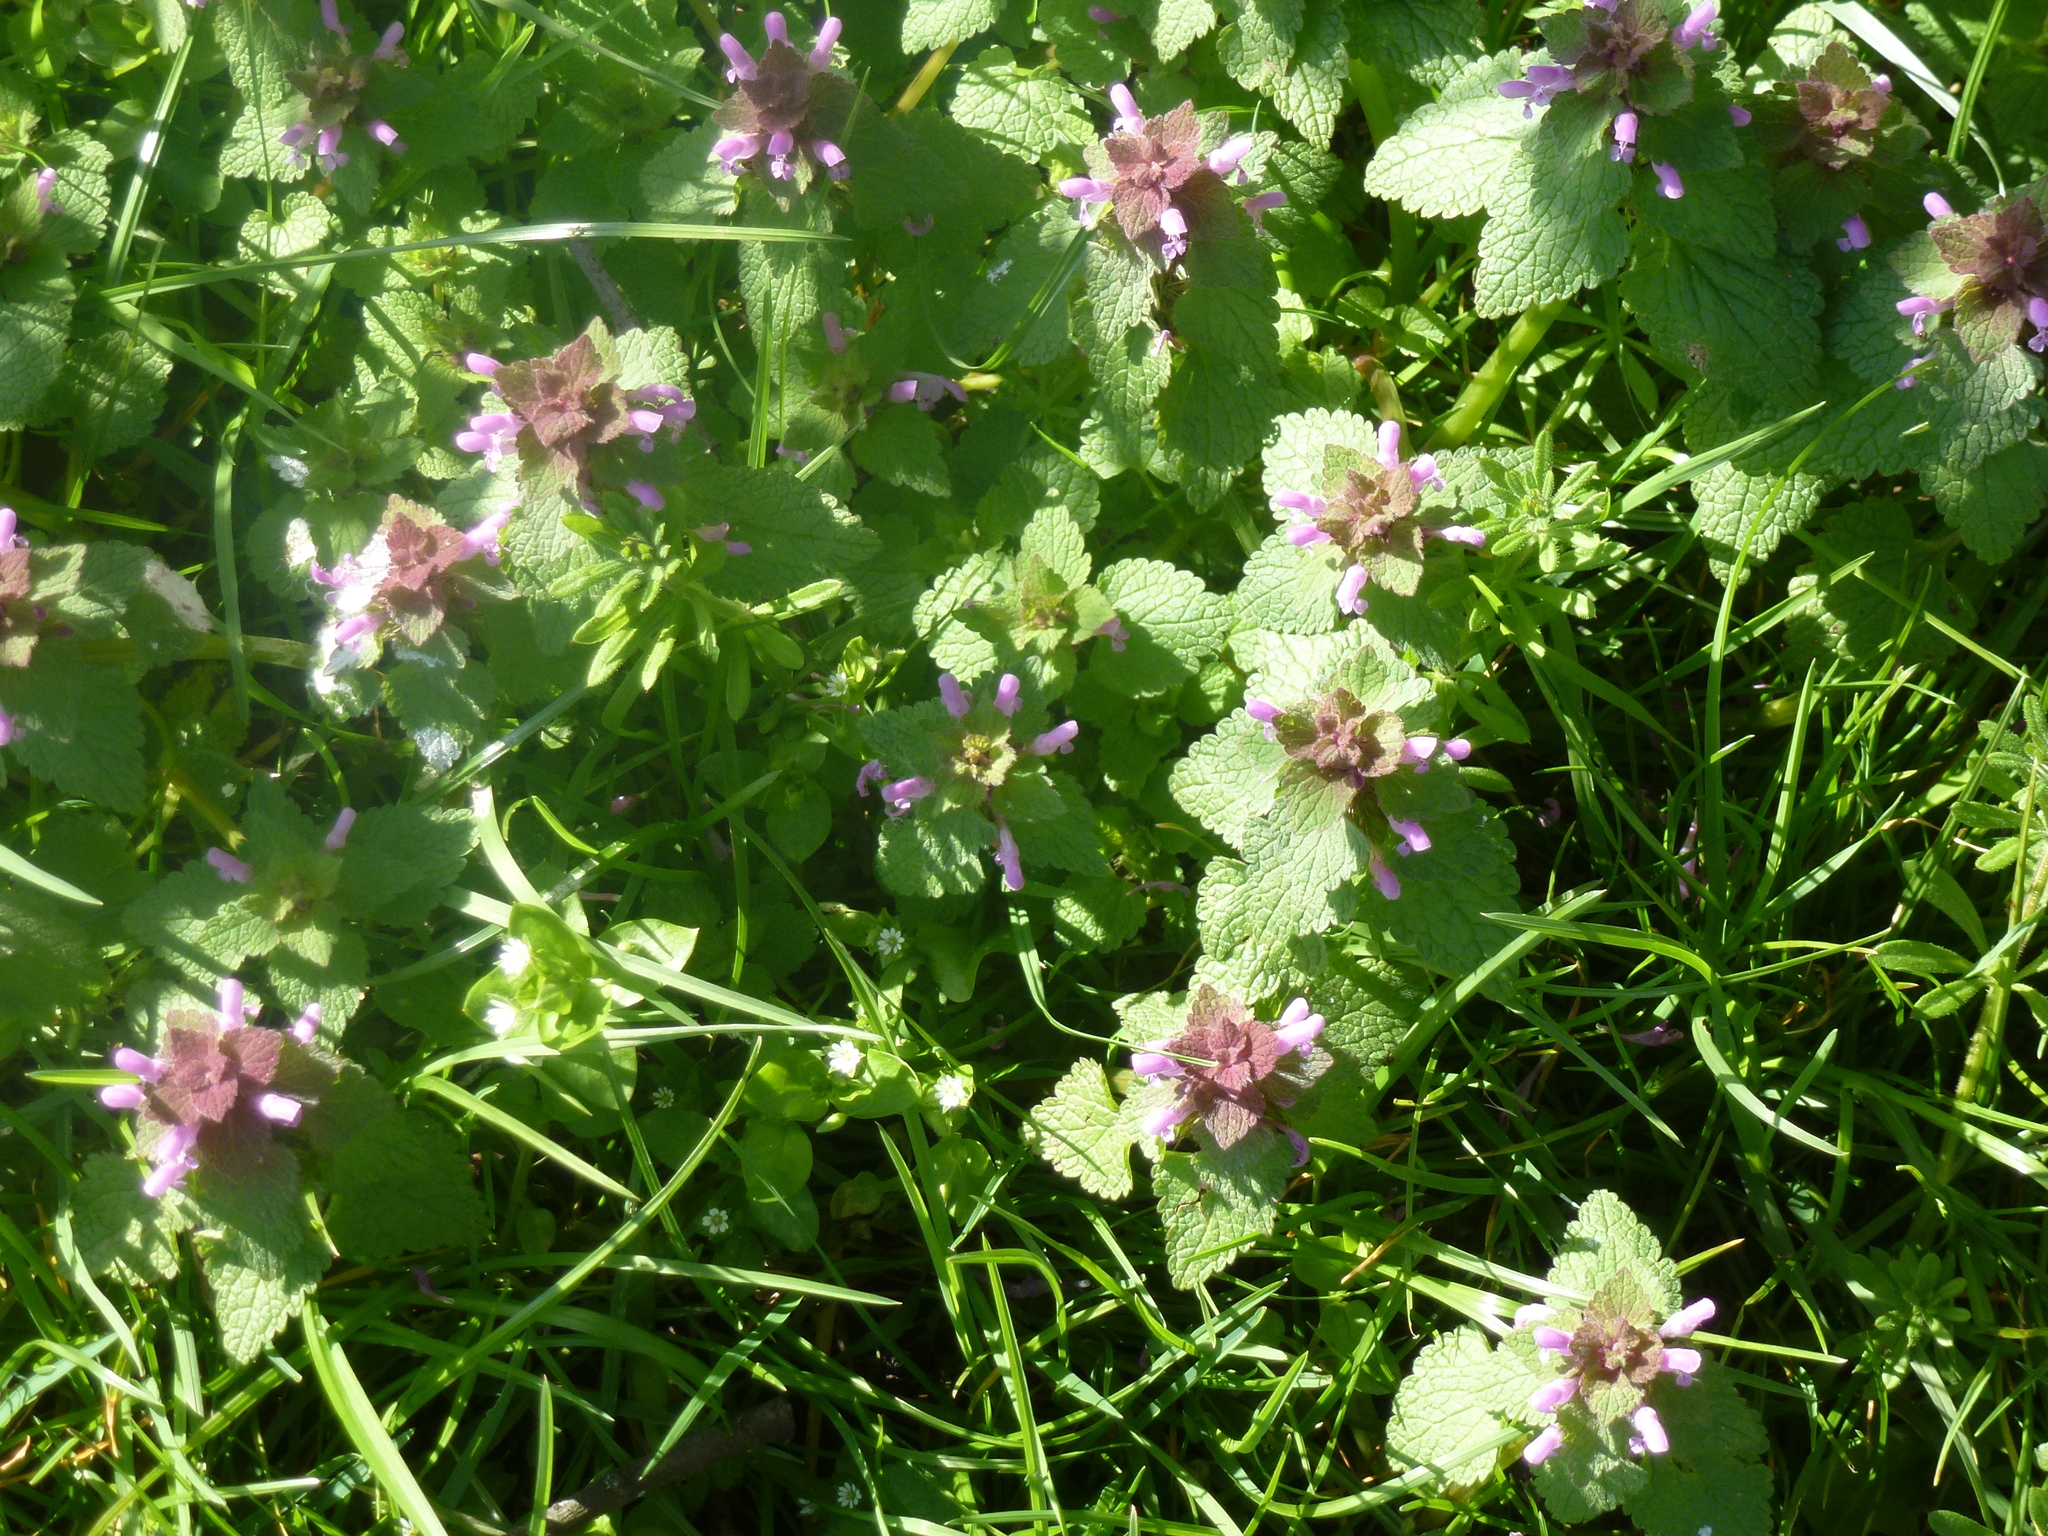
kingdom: Plantae
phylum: Tracheophyta
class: Magnoliopsida
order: Lamiales
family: Lamiaceae
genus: Lamium
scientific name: Lamium purpureum
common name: Red dead-nettle
